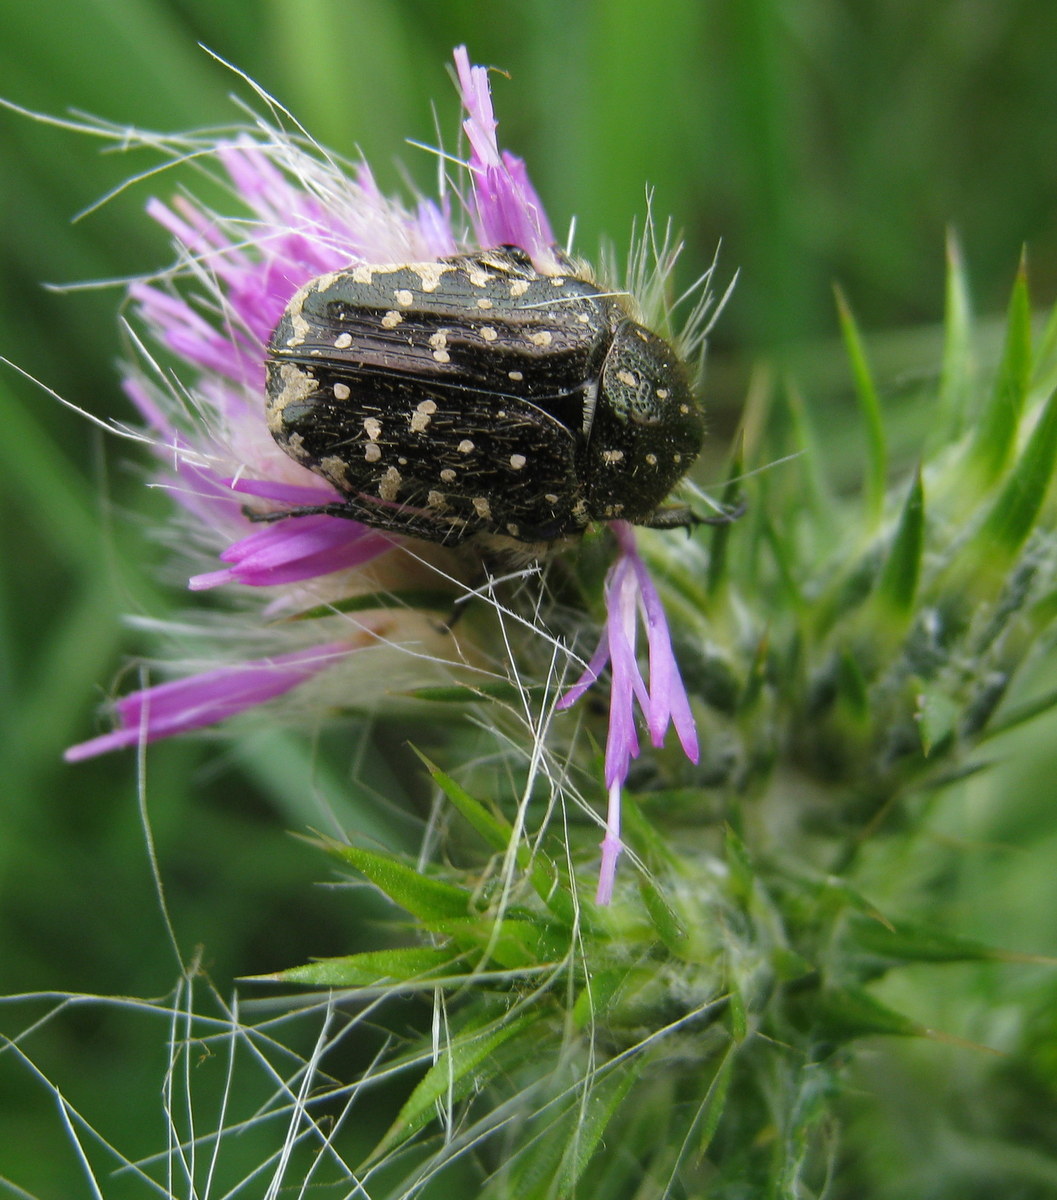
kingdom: Animalia
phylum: Arthropoda
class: Insecta
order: Coleoptera
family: Scarabaeidae
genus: Oxythyrea
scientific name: Oxythyrea funesta
